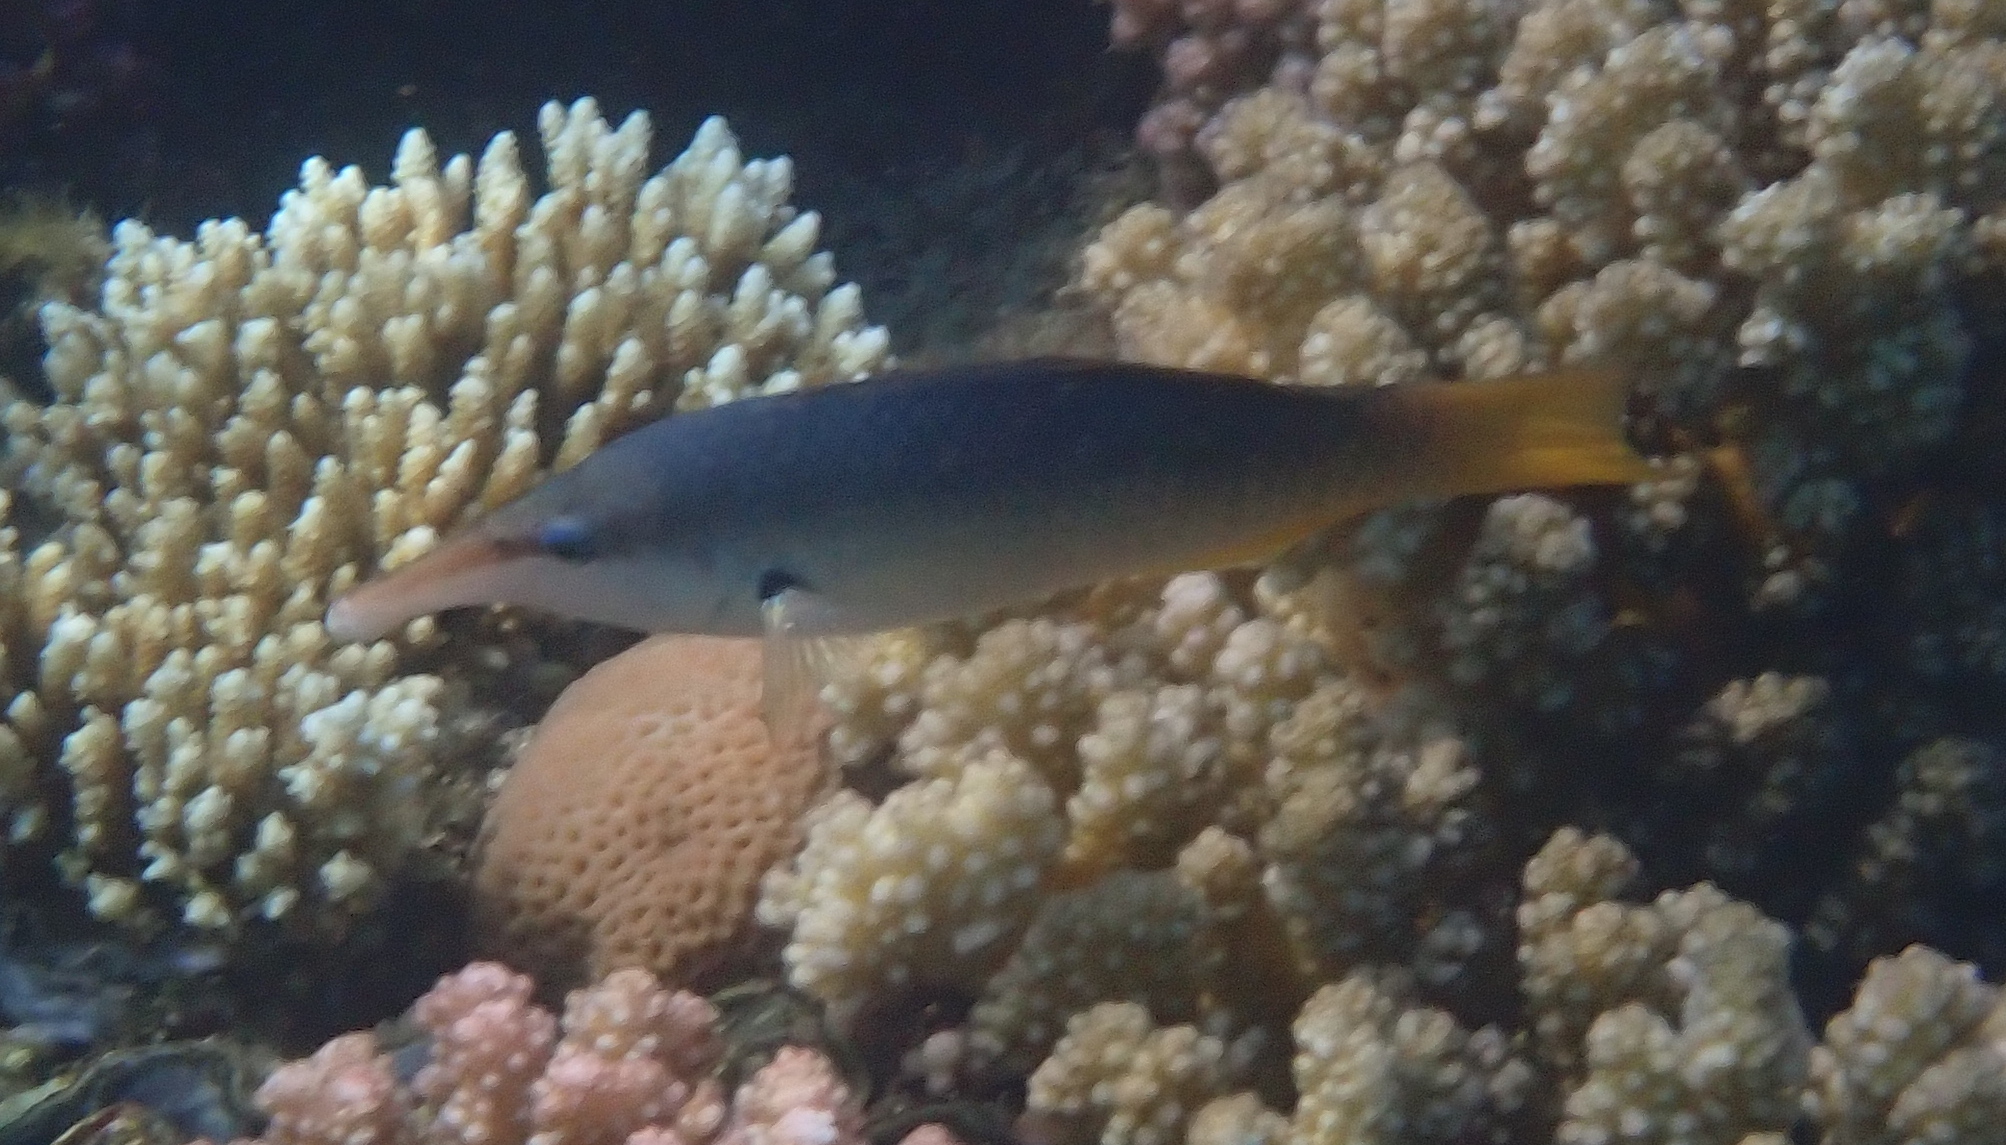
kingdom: Animalia
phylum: Chordata
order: Perciformes
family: Labridae
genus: Gomphosus
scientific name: Gomphosus klunzingeri
